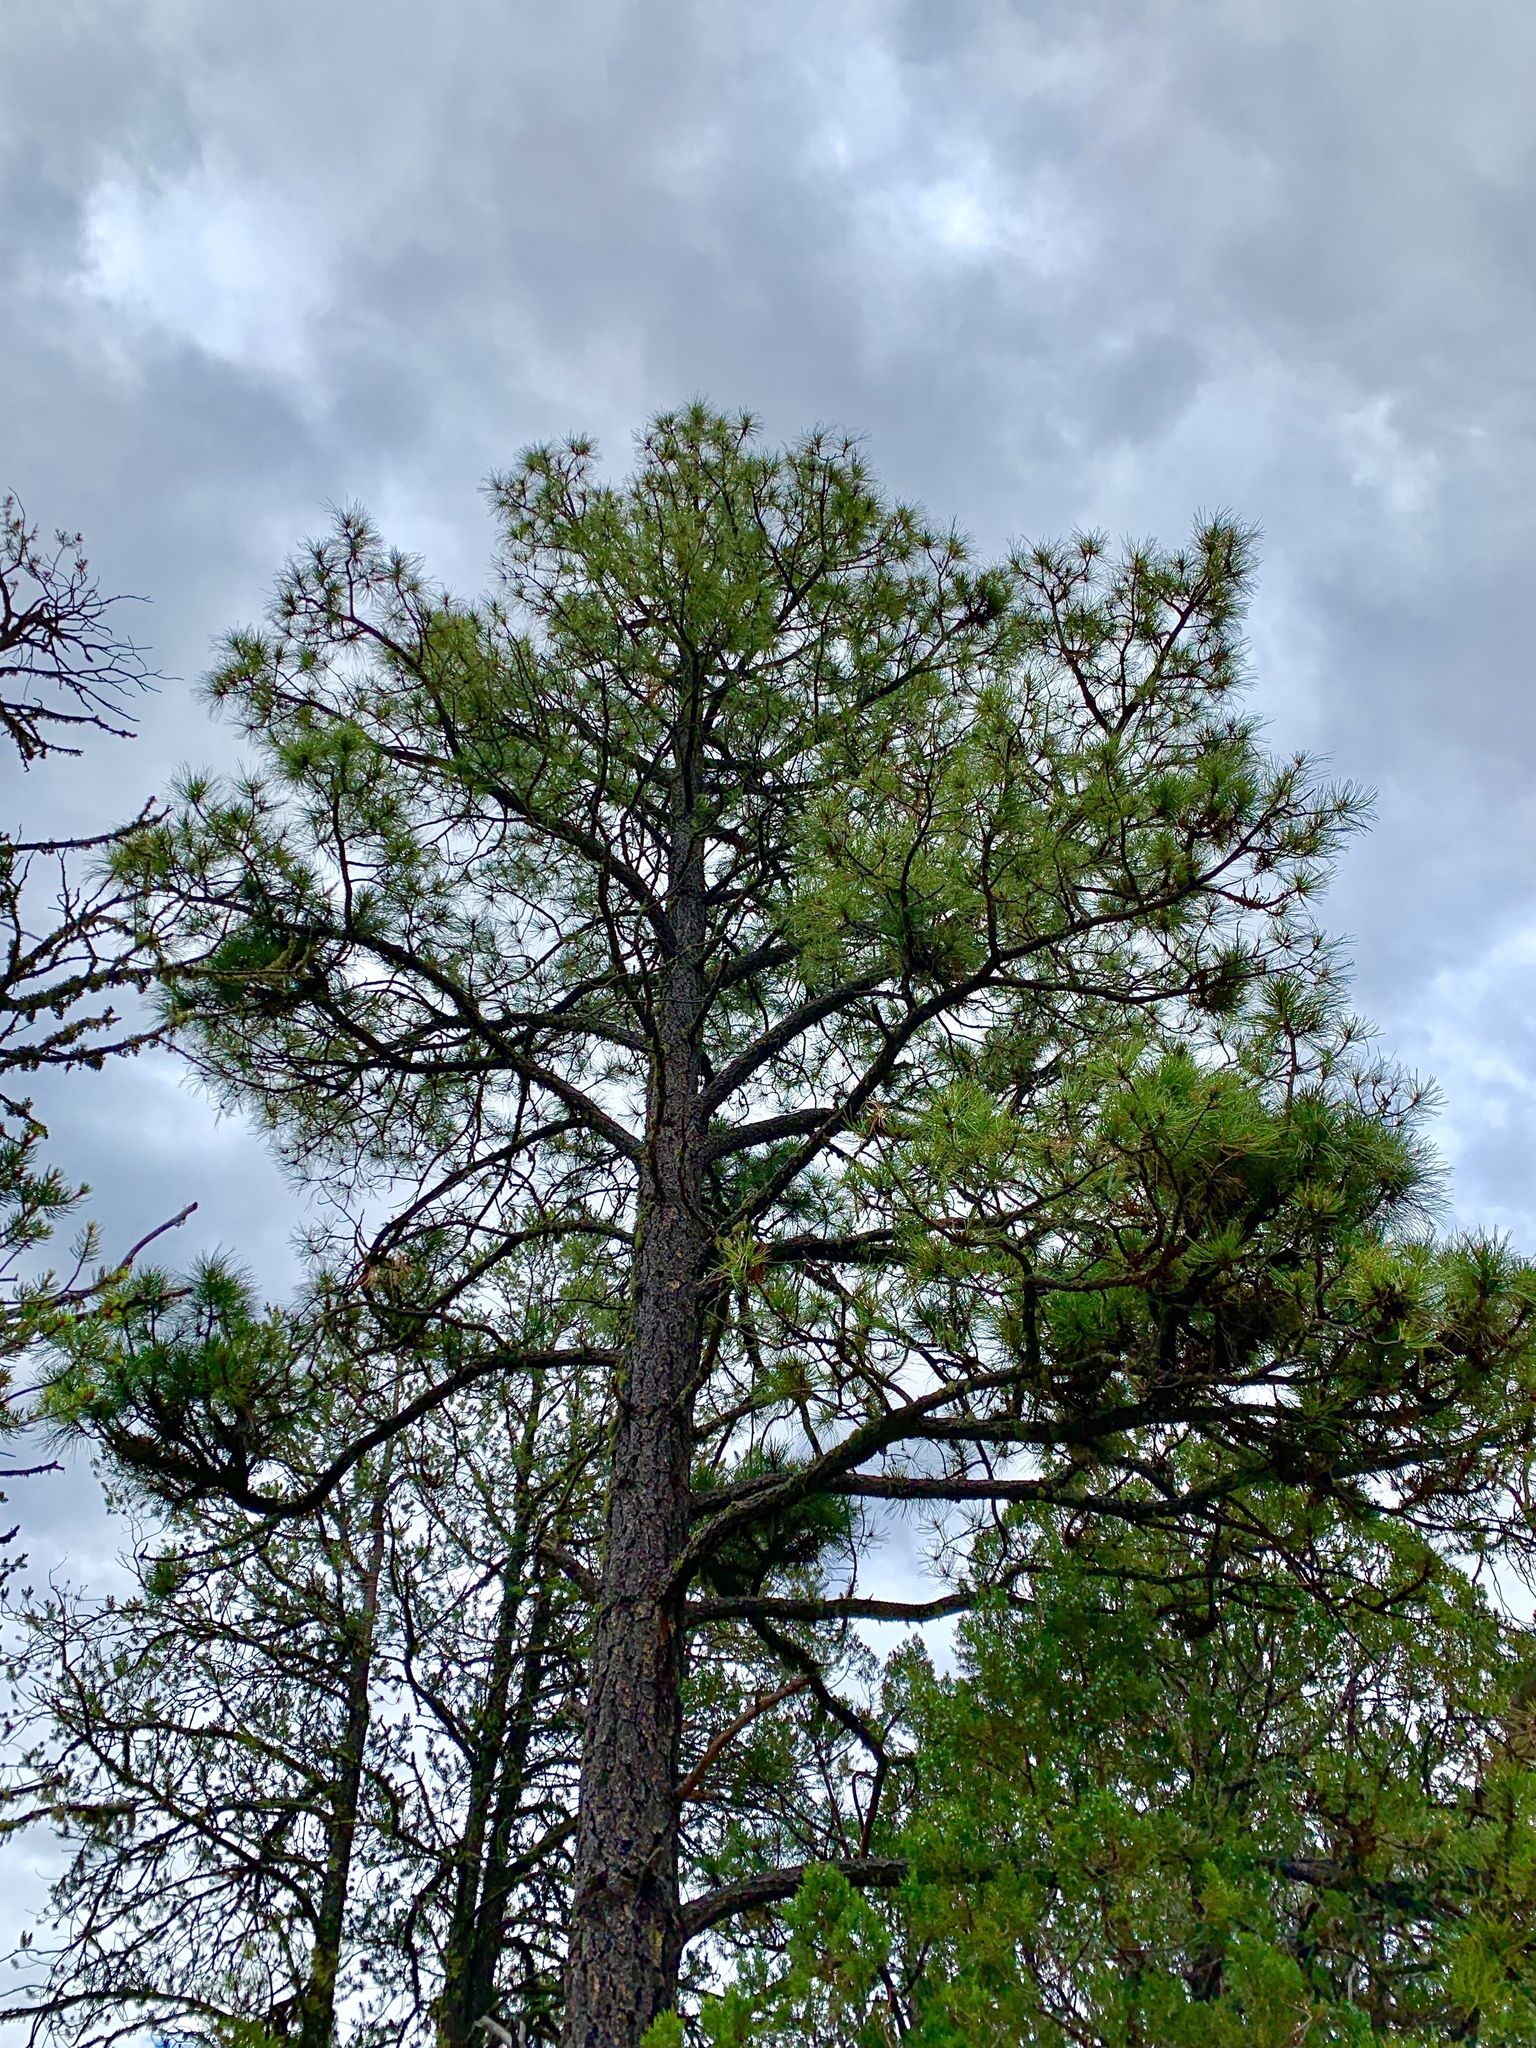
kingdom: Plantae
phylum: Tracheophyta
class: Pinopsida
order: Pinales
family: Pinaceae
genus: Pinus
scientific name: Pinus ponderosa
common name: Western yellow-pine
